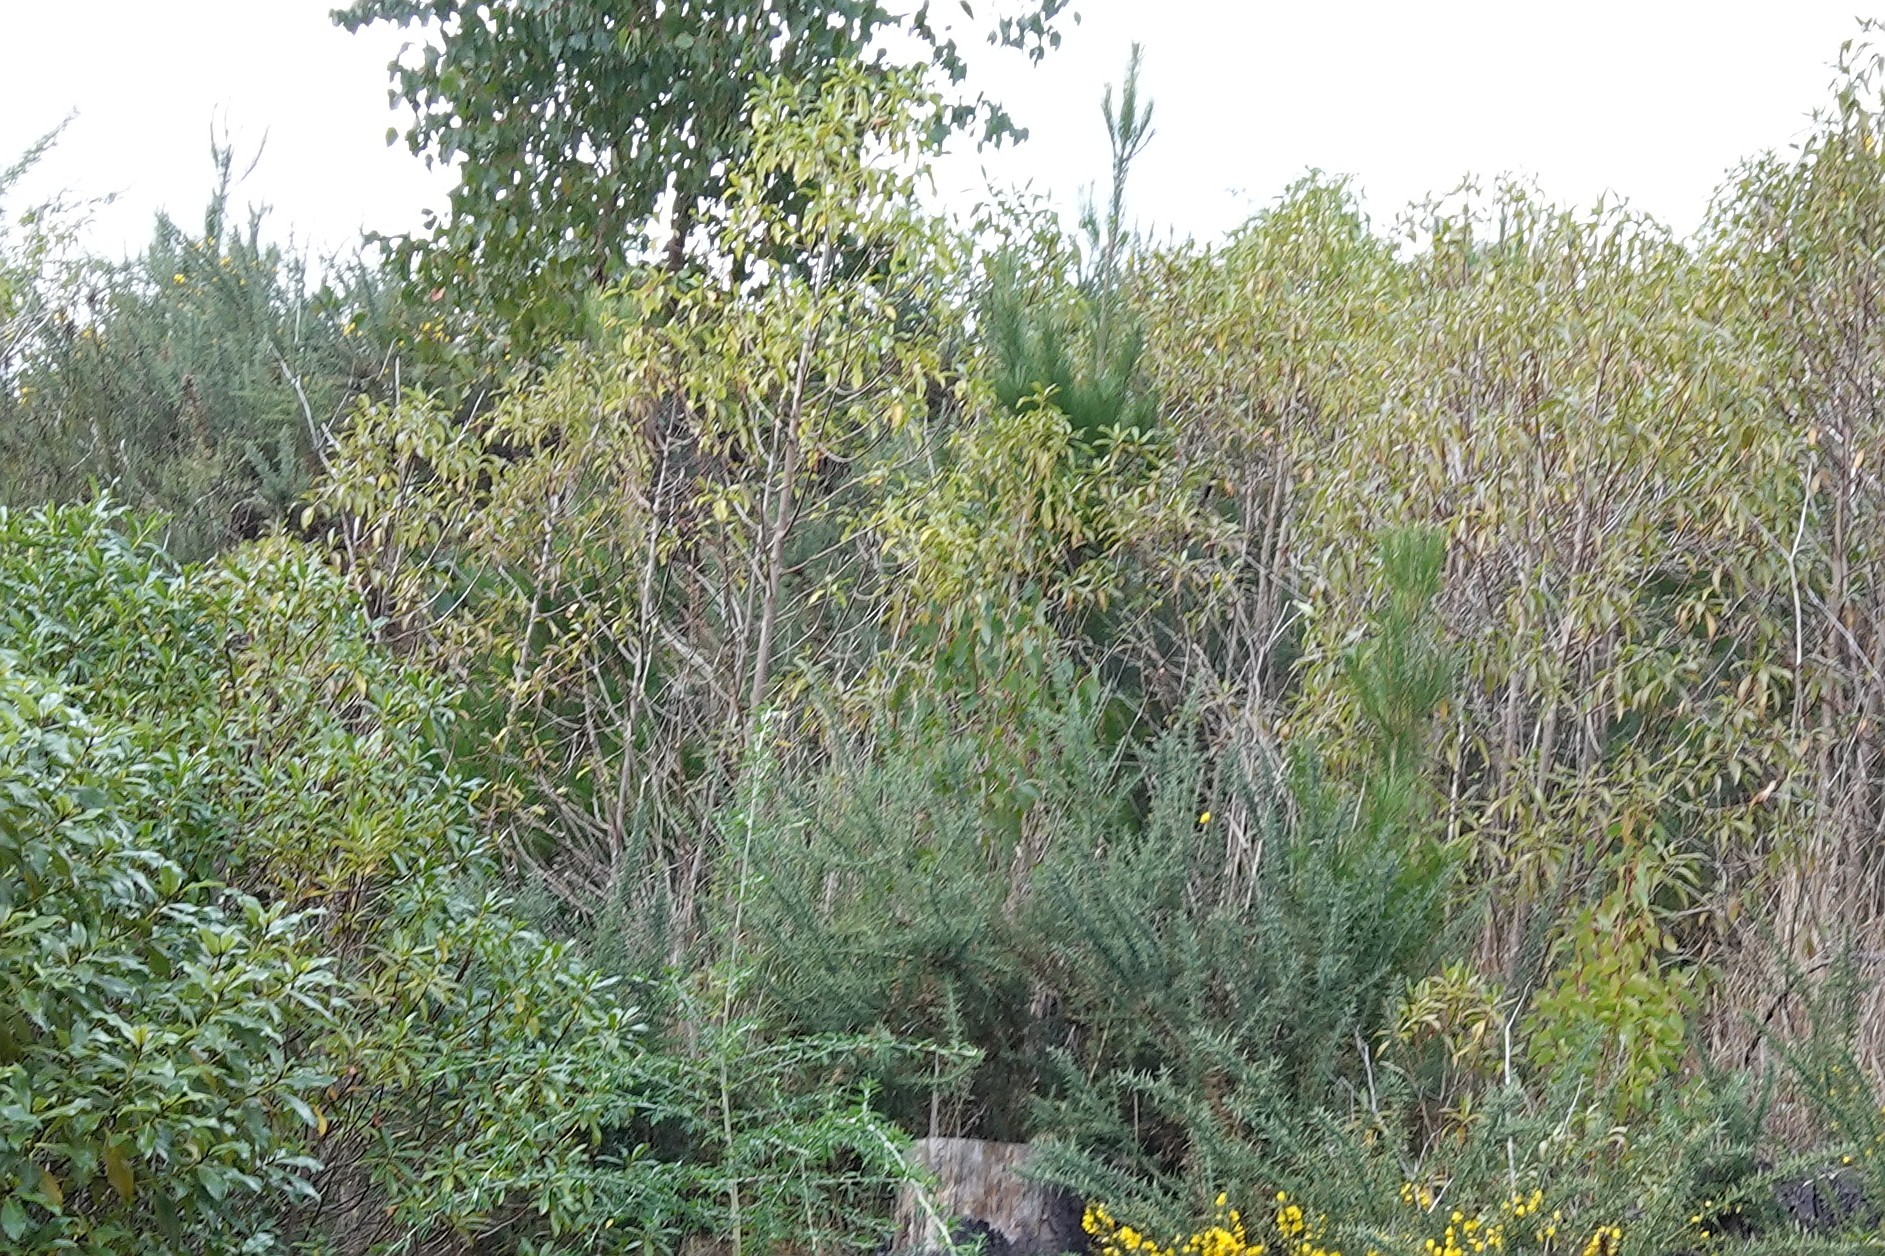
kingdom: Plantae
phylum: Tracheophyta
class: Pinopsida
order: Pinales
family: Pinaceae
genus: Pinus
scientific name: Pinus radiata
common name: Monterey pine
